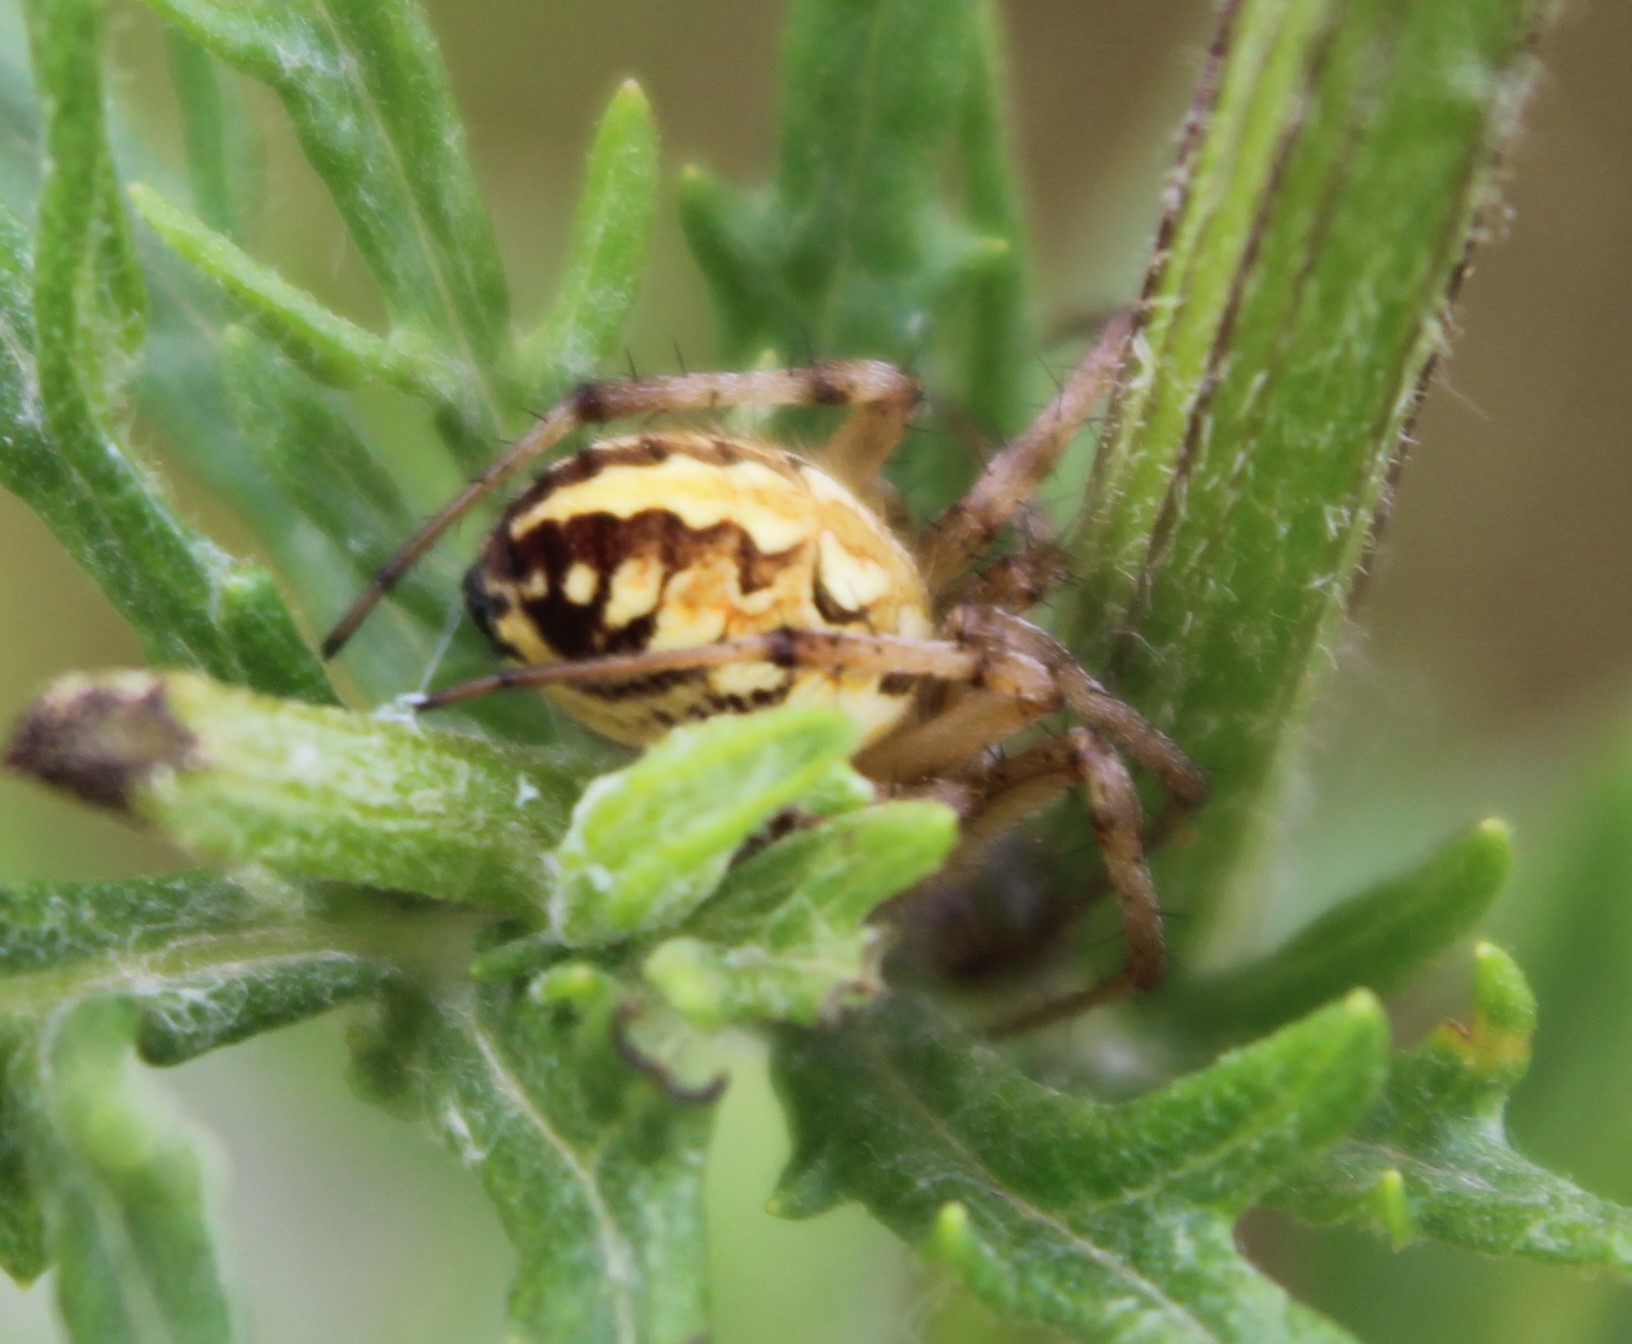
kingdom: Animalia
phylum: Arthropoda
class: Arachnida
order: Araneae
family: Araneidae
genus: Neoscona
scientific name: Neoscona adianta
